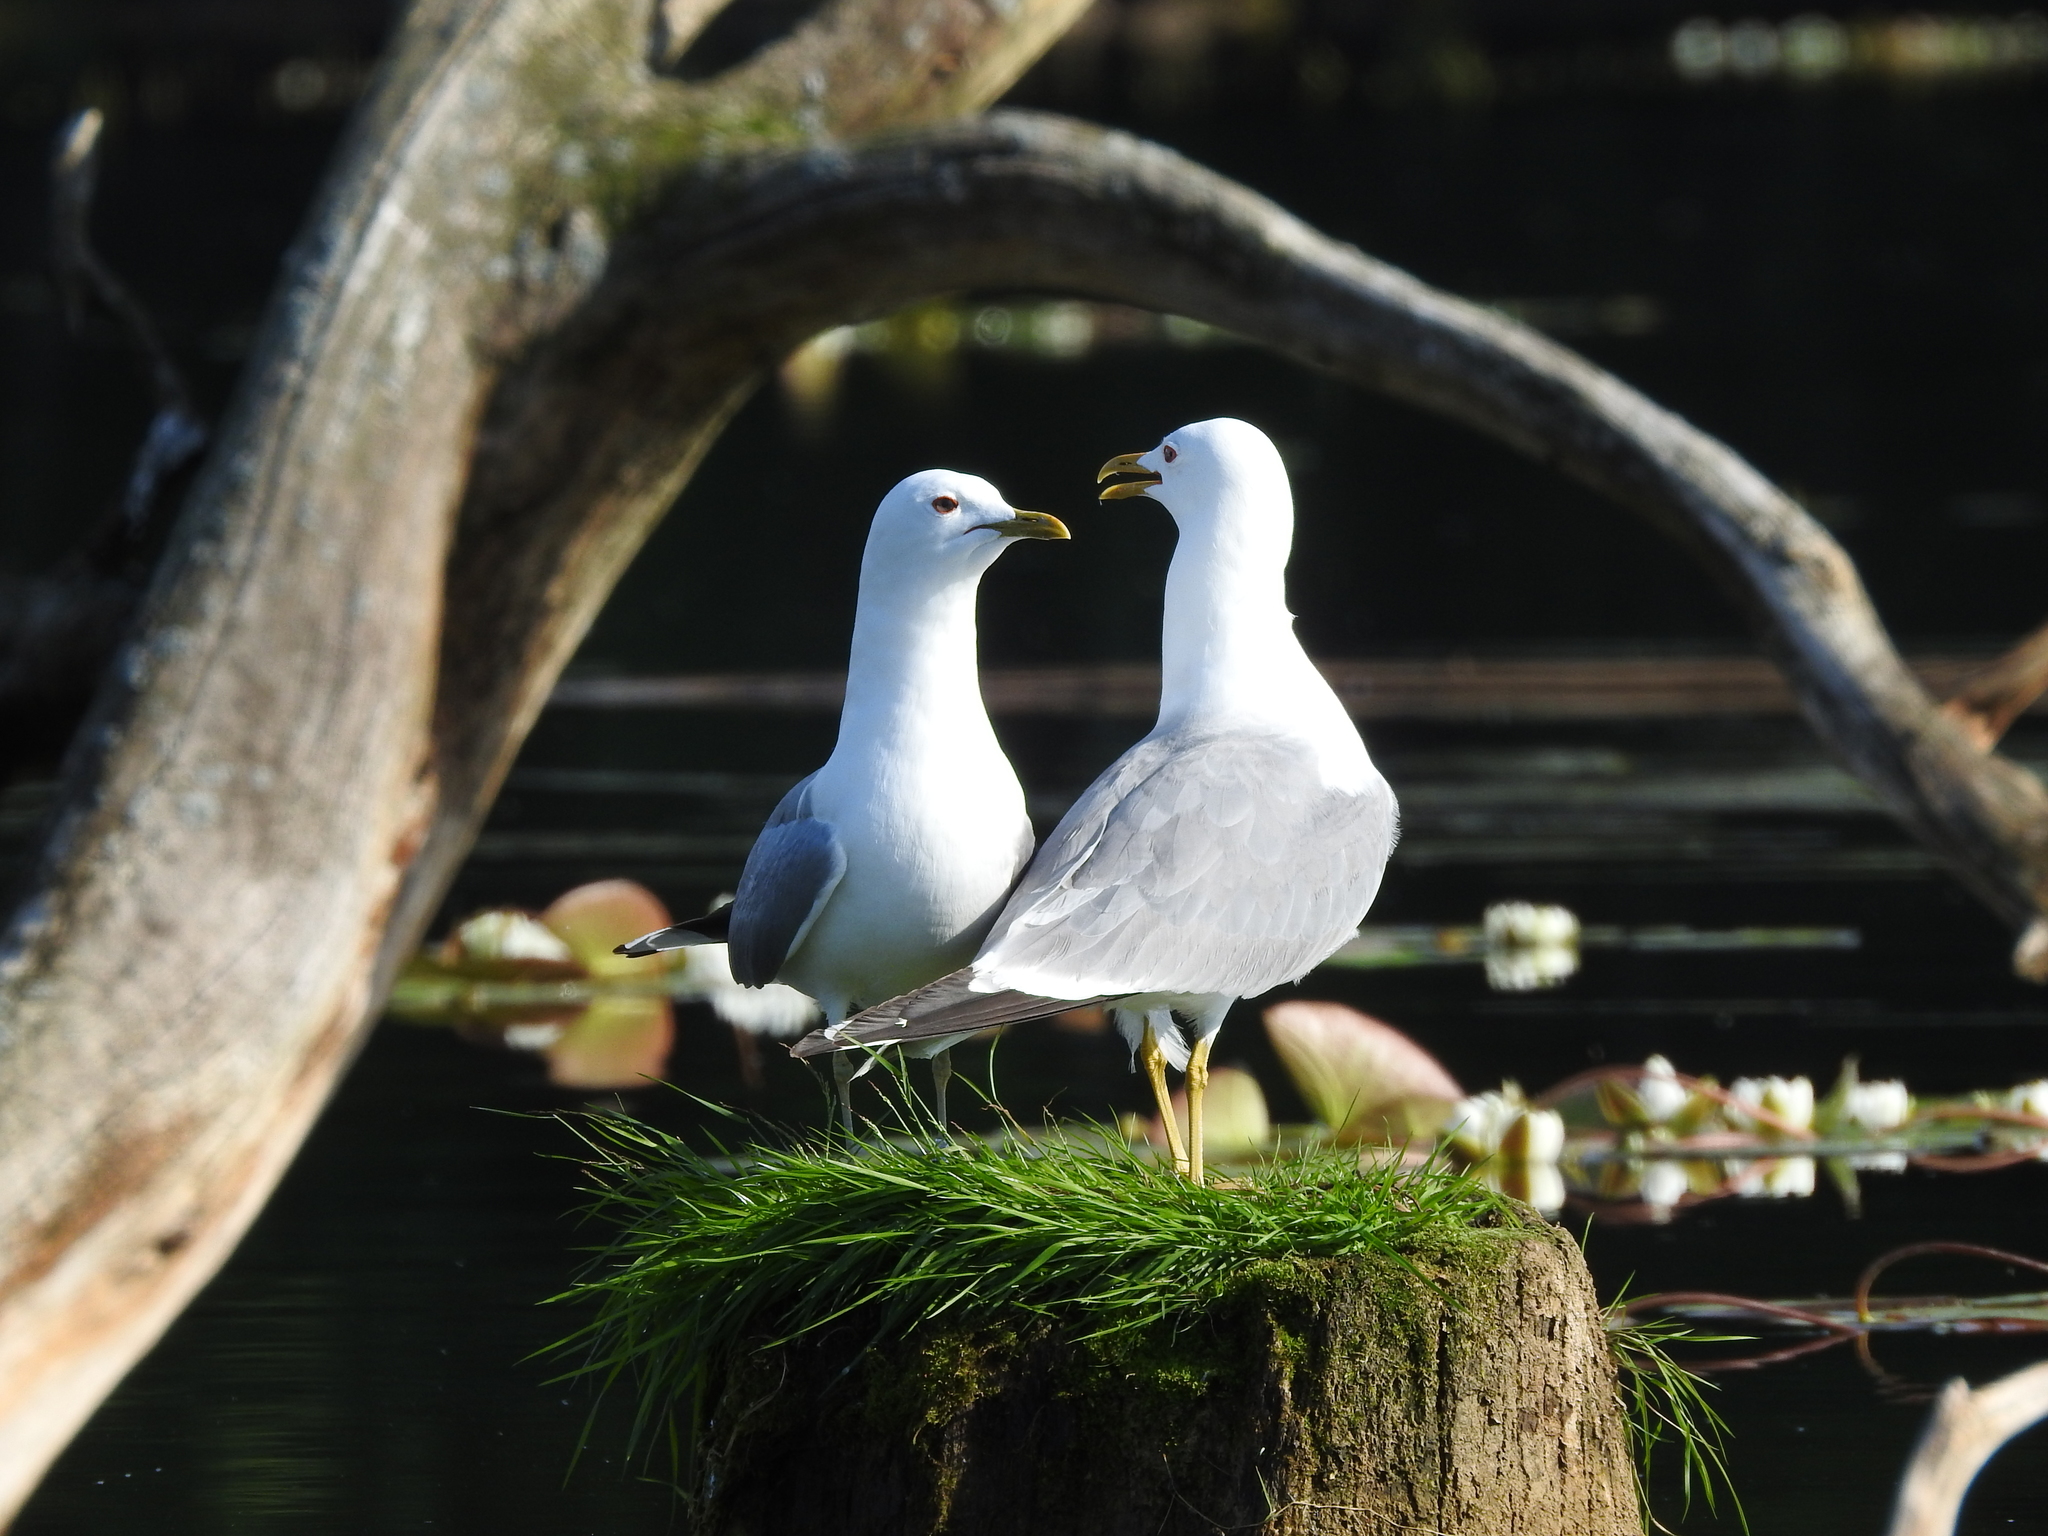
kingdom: Animalia
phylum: Chordata
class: Aves
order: Charadriiformes
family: Laridae
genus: Larus
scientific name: Larus canus
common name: Mew gull
